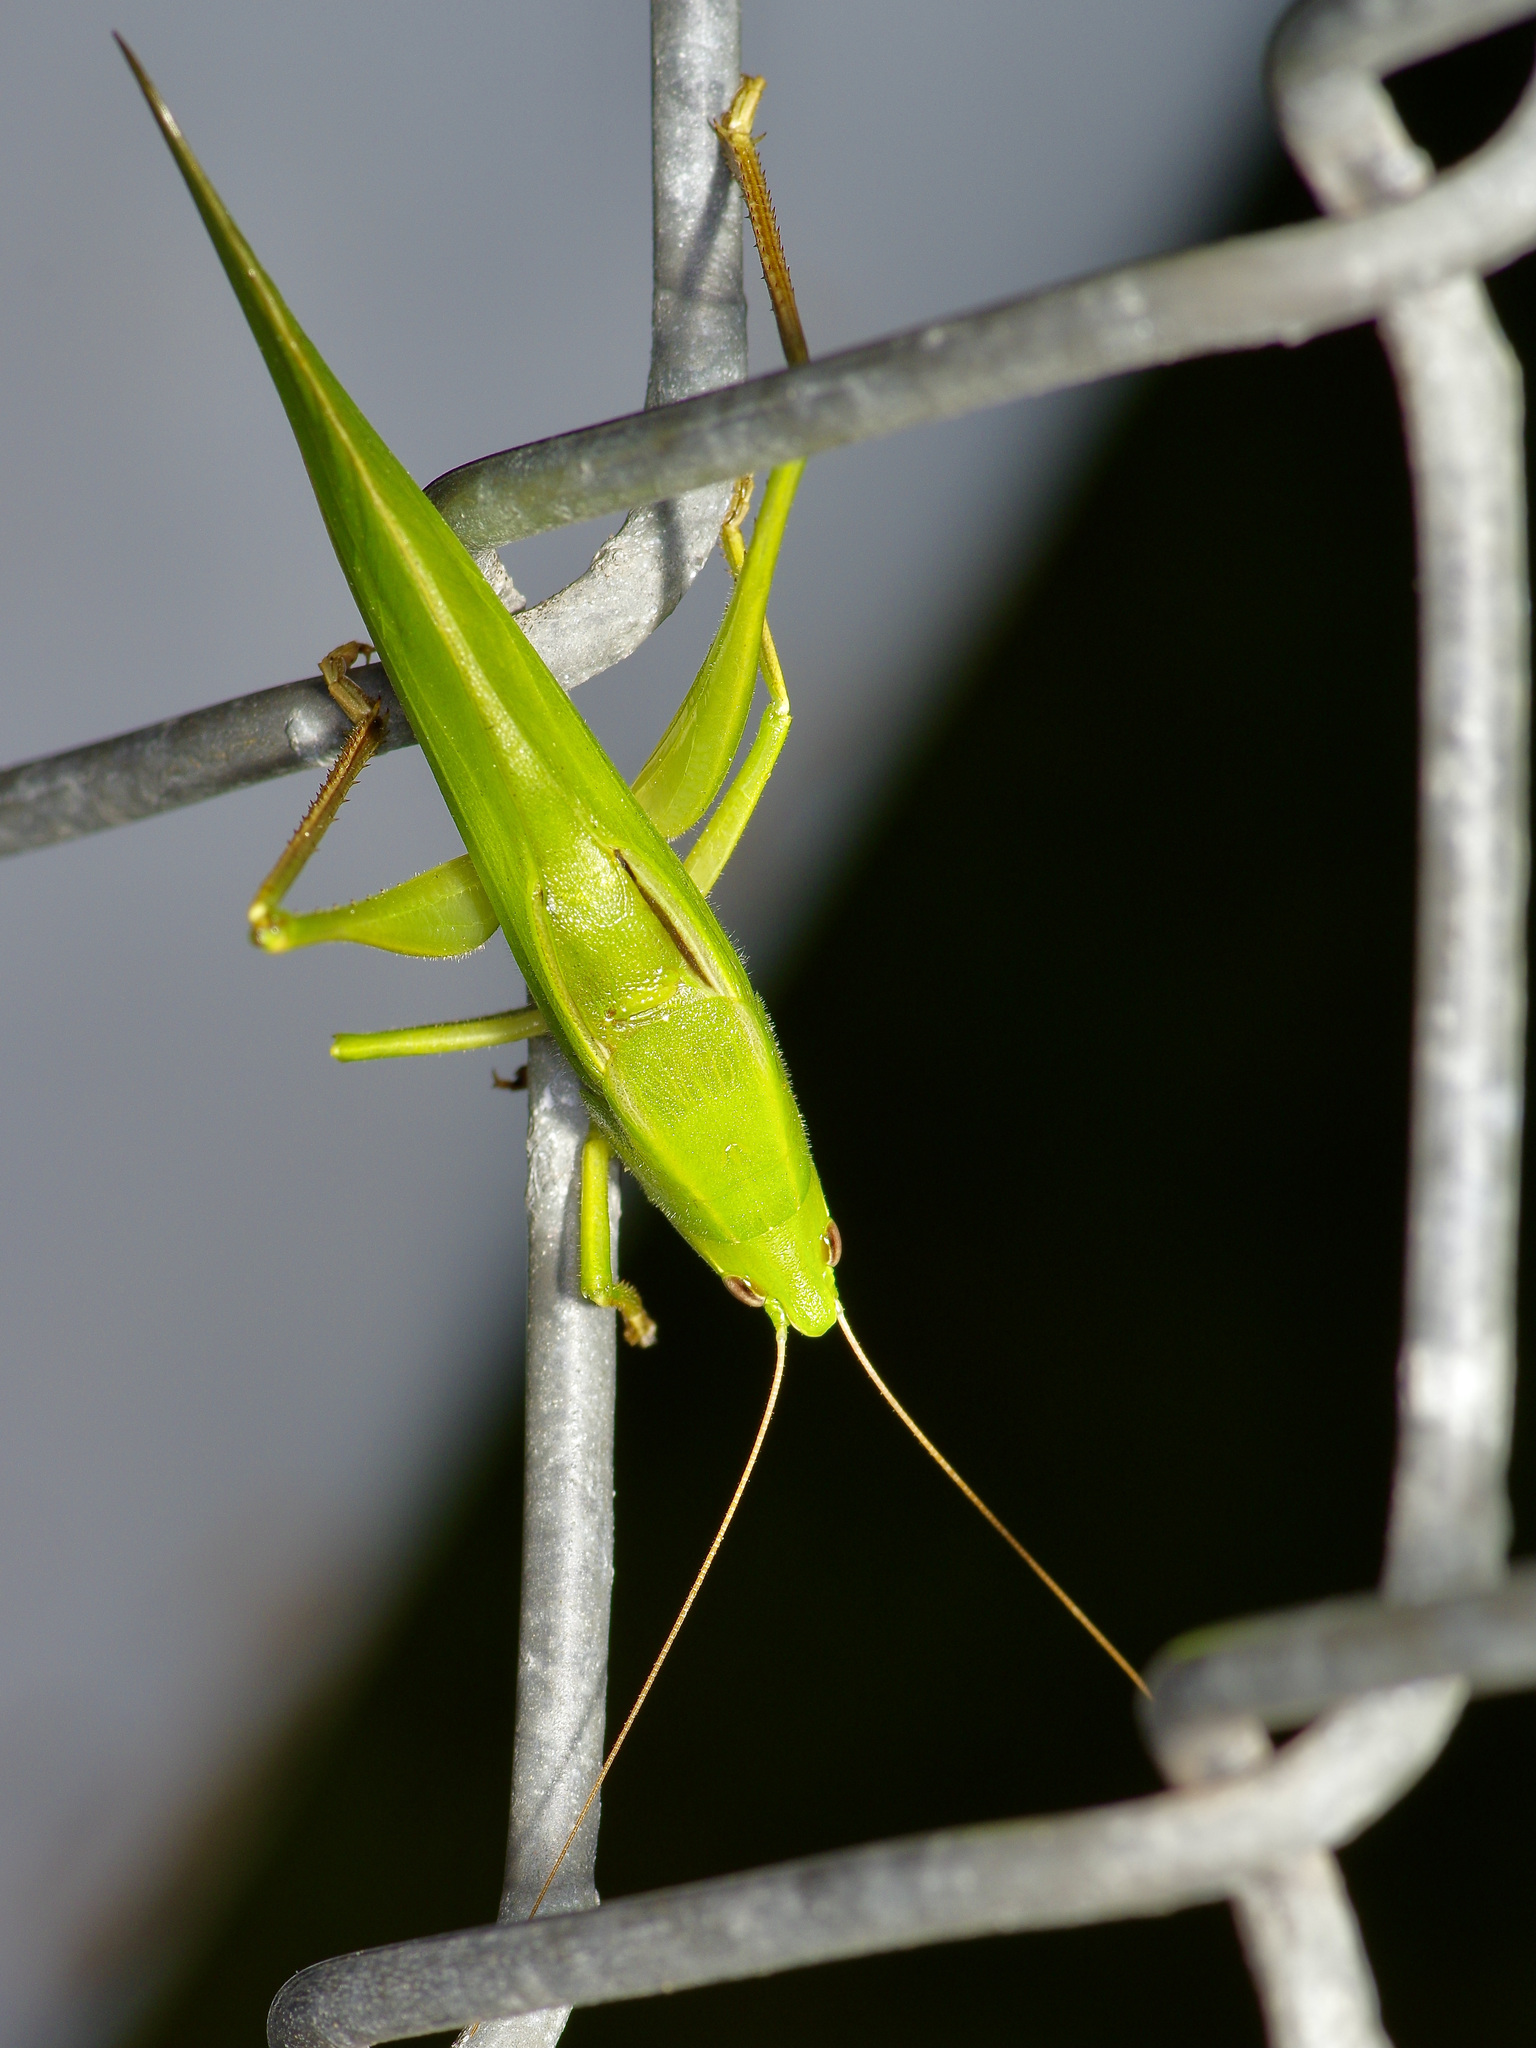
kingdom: Animalia
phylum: Arthropoda
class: Insecta
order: Orthoptera
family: Tettigoniidae
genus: Neoconocephalus
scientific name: Neoconocephalus triops
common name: Broad-tipped conehead
